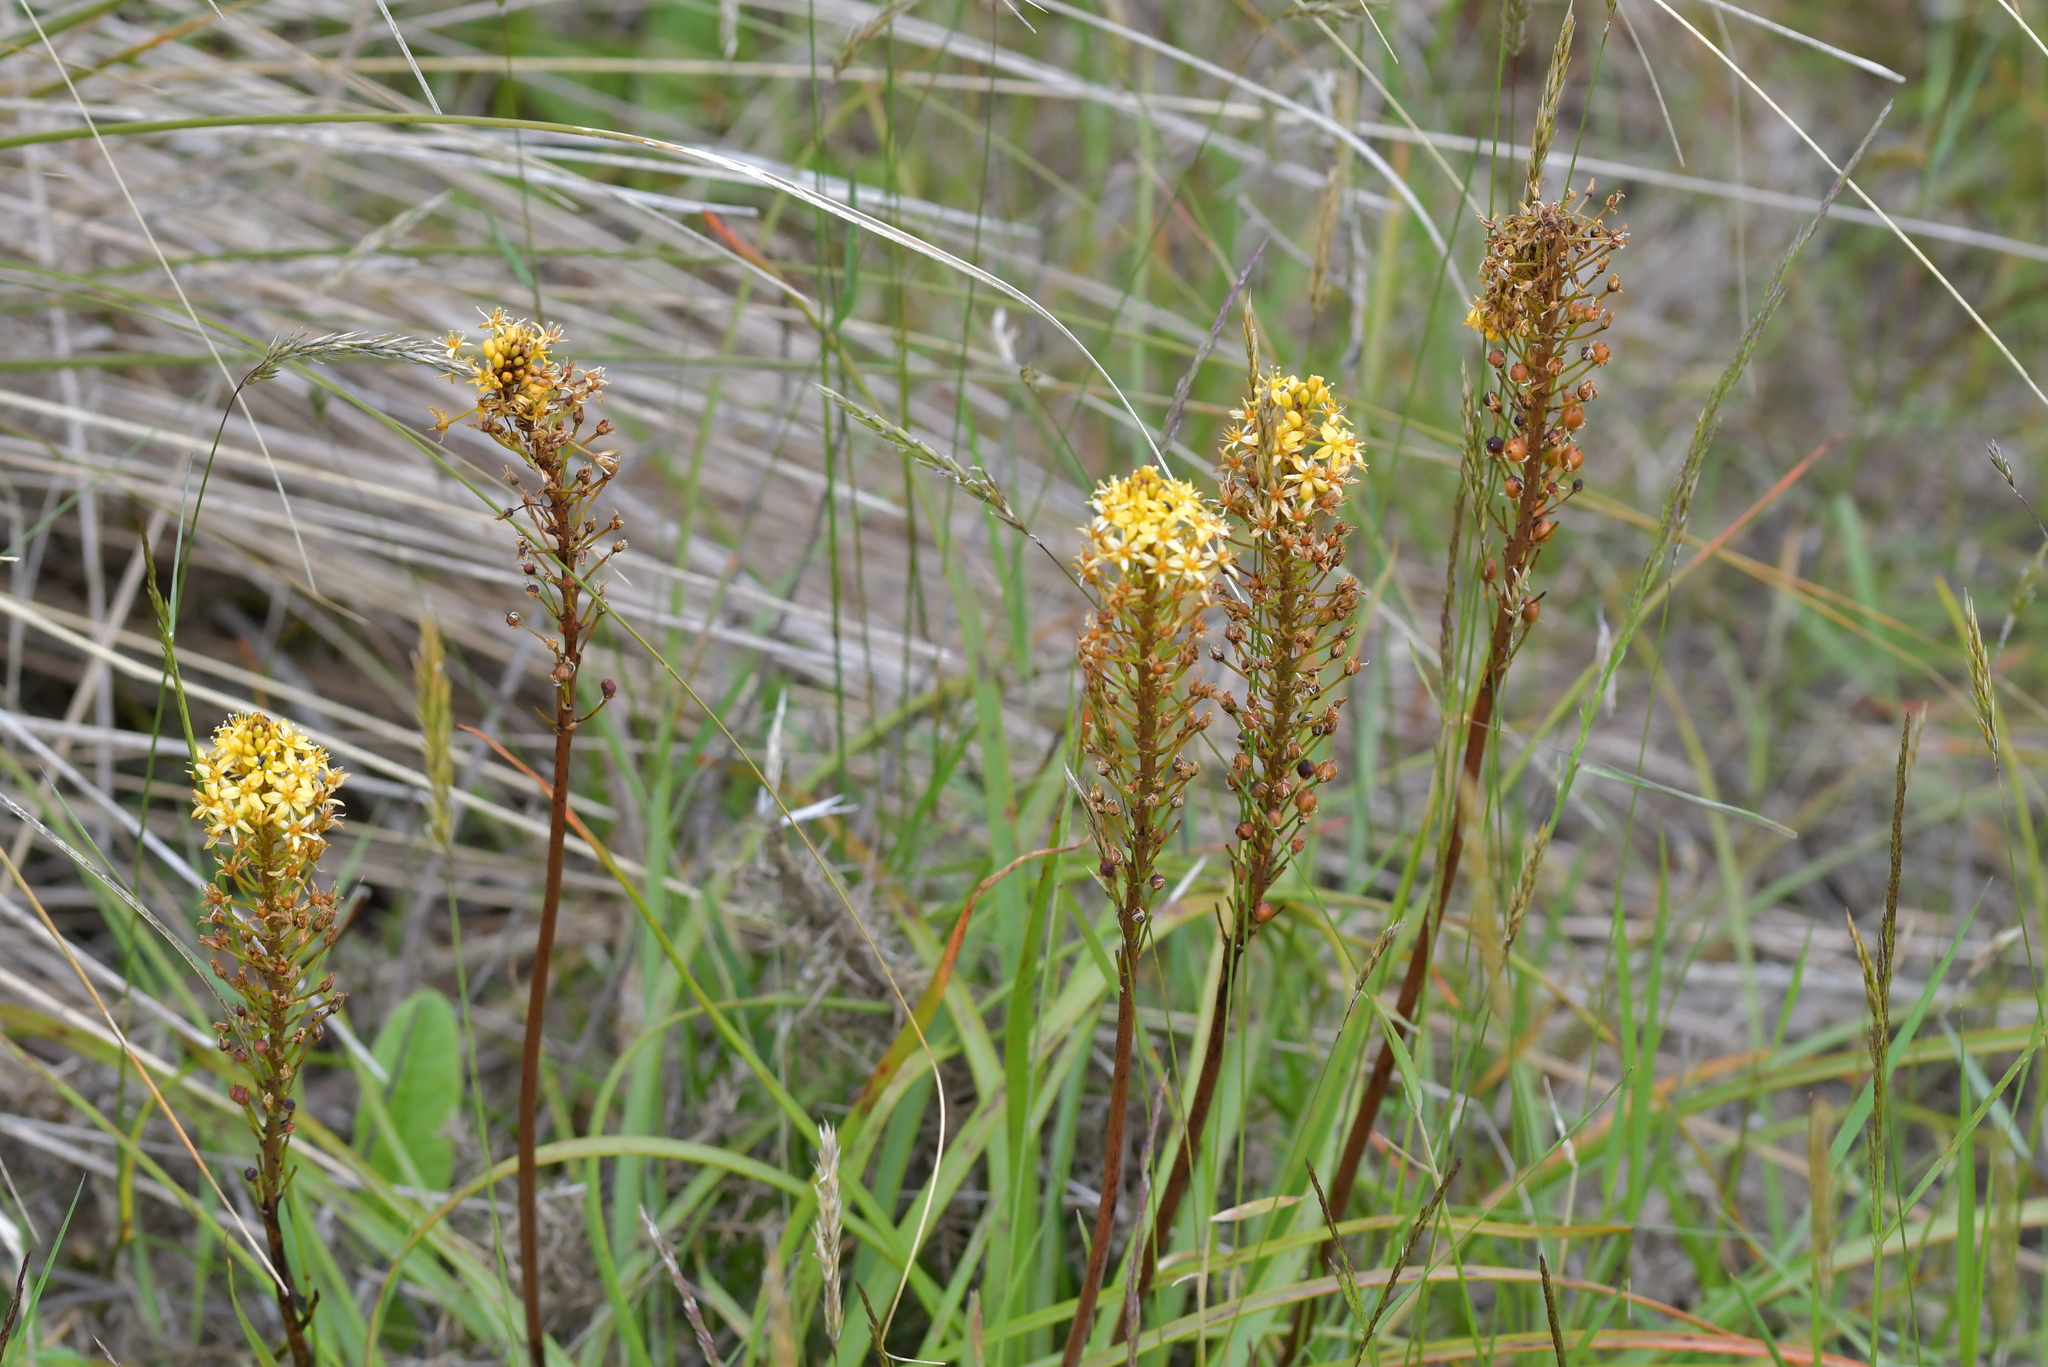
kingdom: Plantae
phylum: Tracheophyta
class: Liliopsida
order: Asparagales
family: Asphodelaceae
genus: Bulbinella
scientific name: Bulbinella angustifolia
